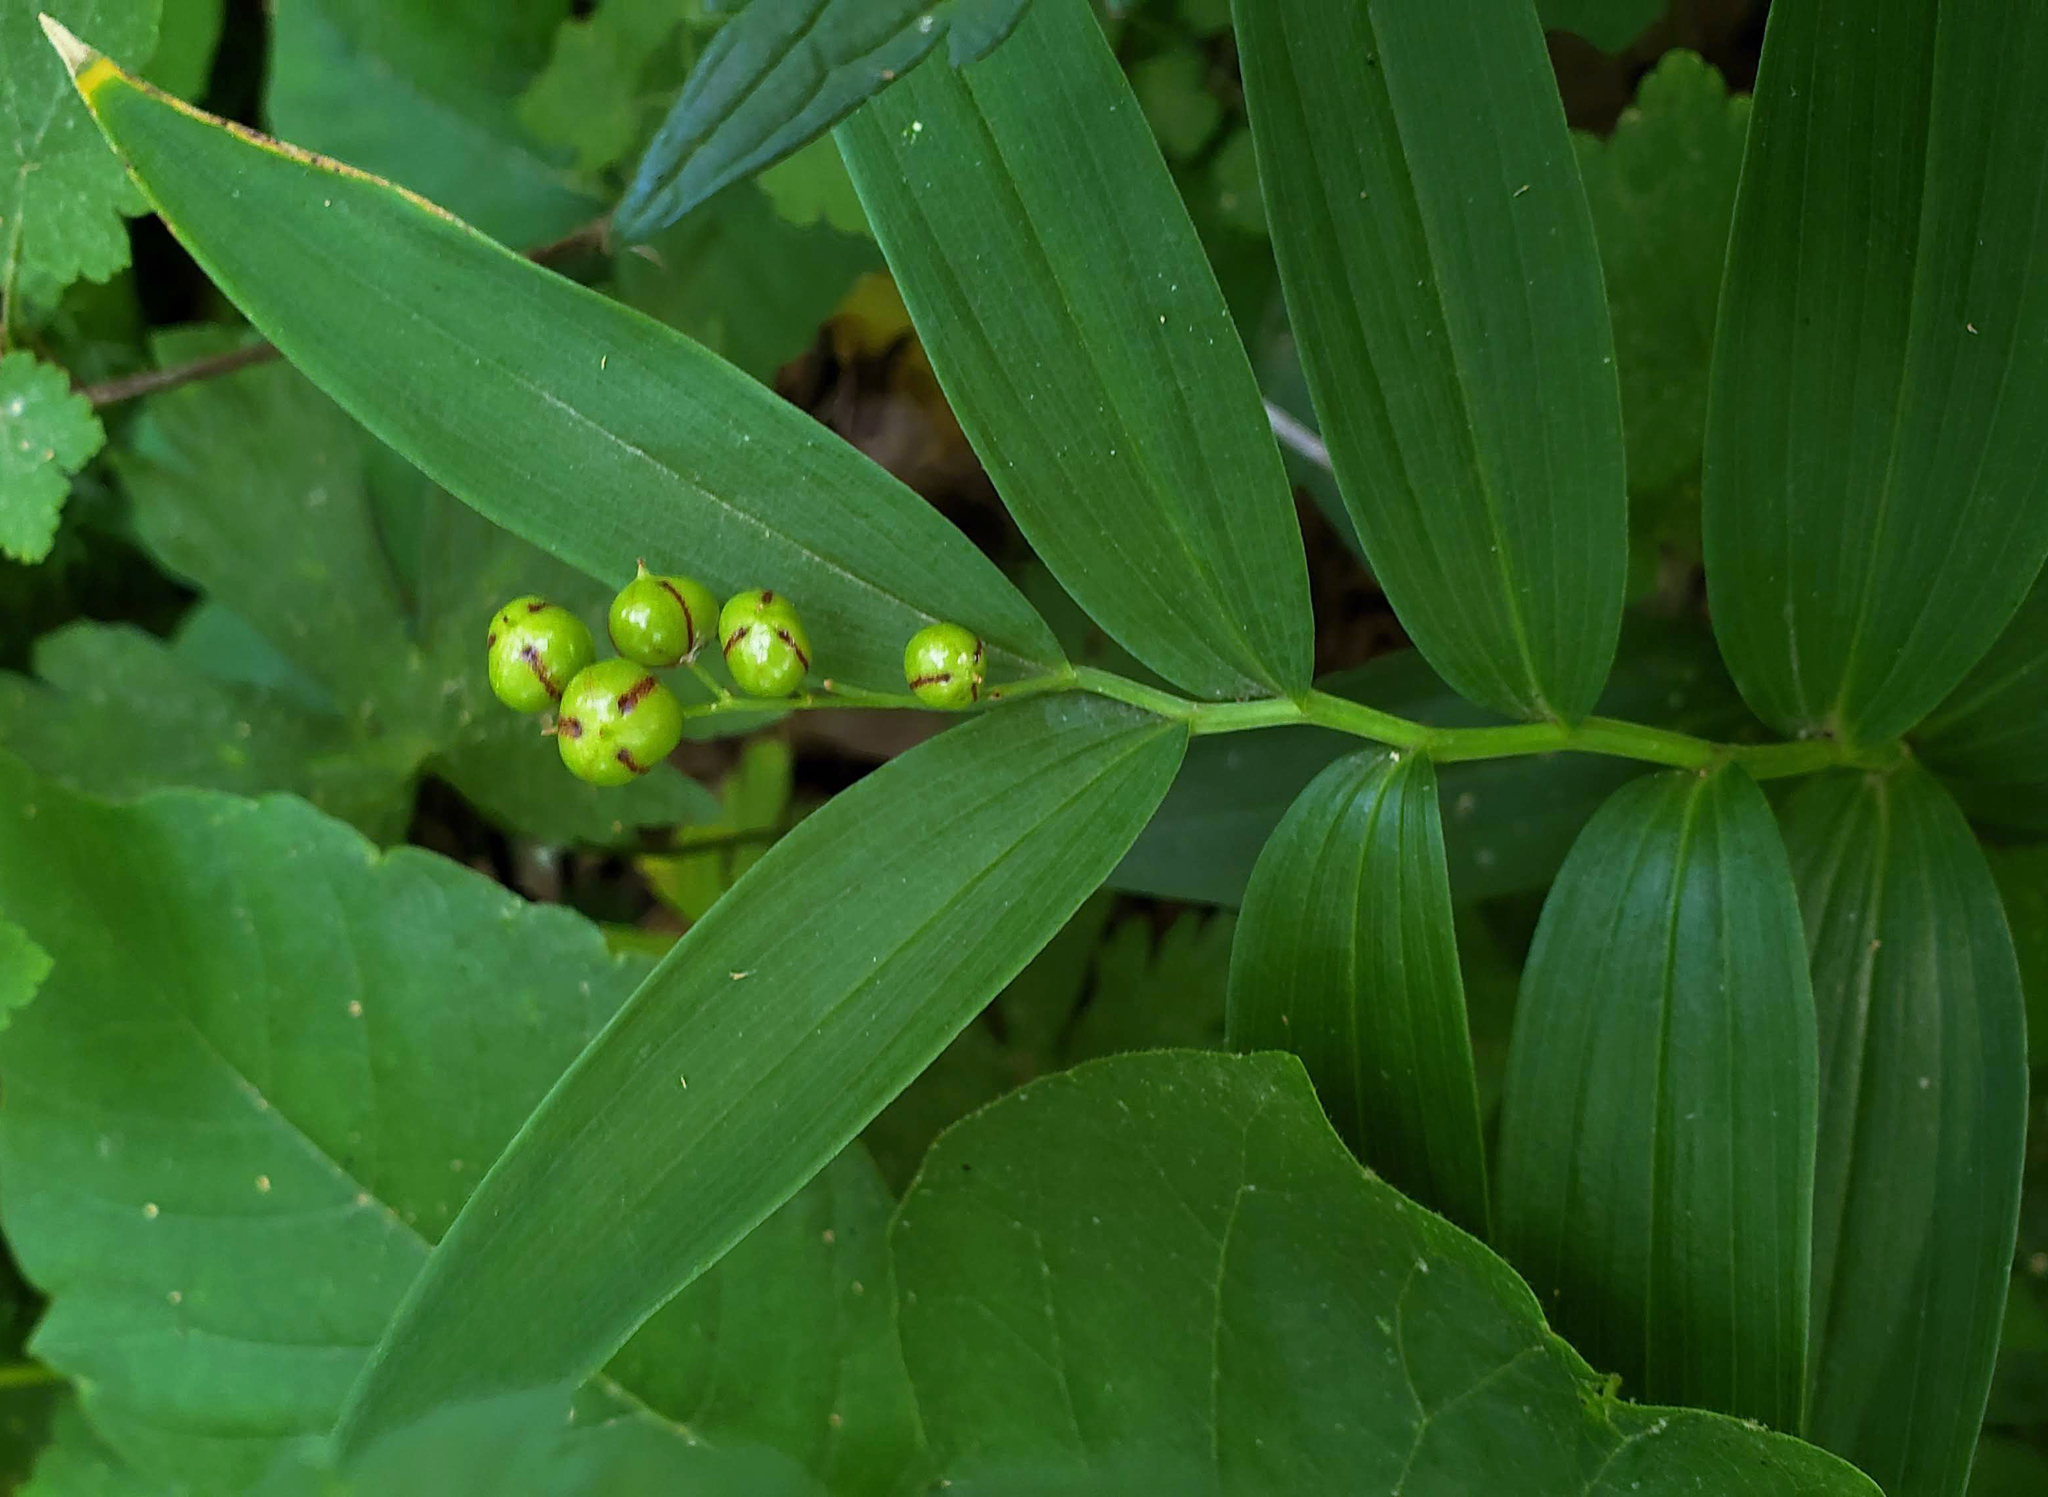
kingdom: Plantae
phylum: Tracheophyta
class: Liliopsida
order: Asparagales
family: Asparagaceae
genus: Maianthemum
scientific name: Maianthemum stellatum
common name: Little false solomon's seal
